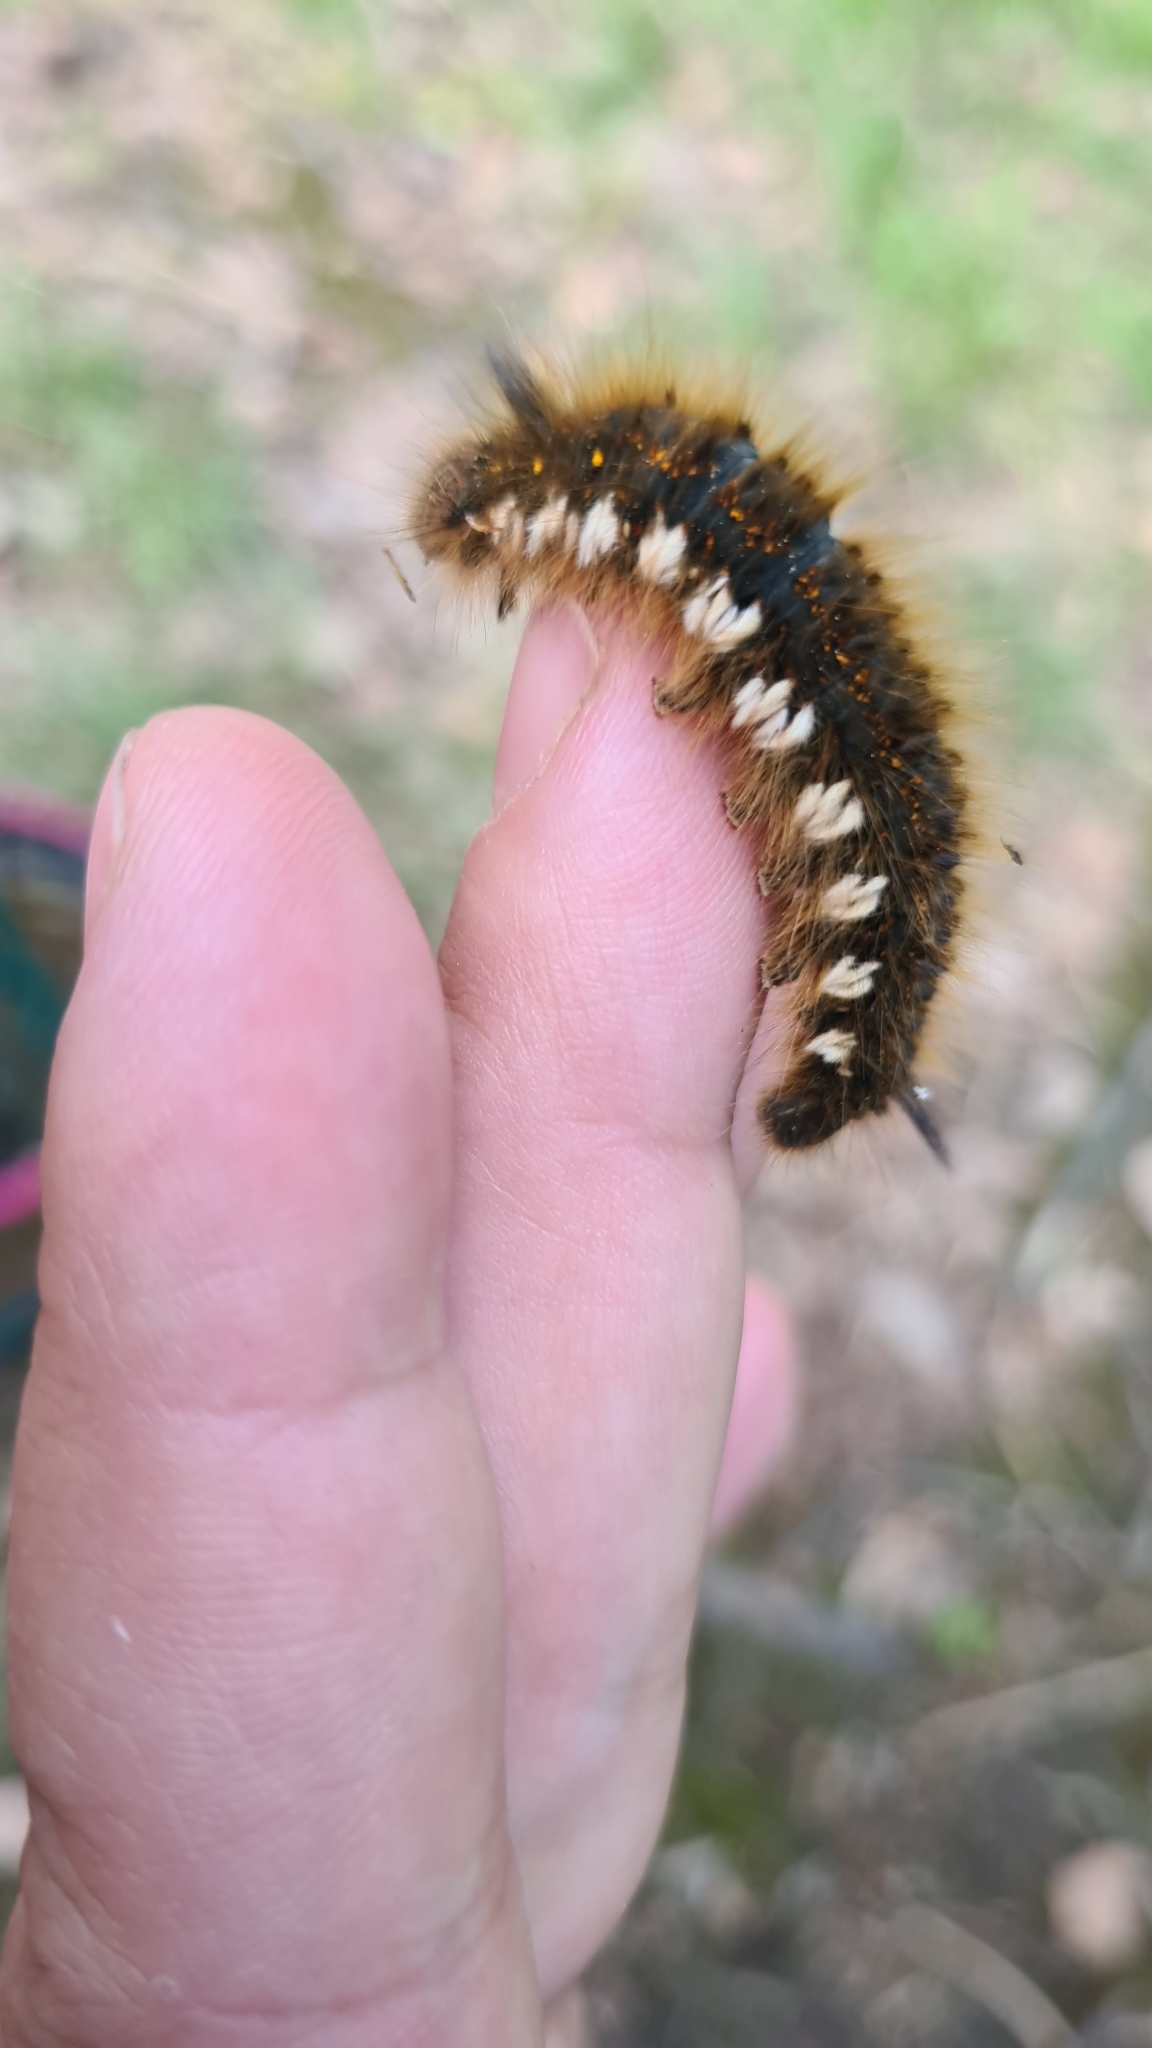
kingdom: Animalia
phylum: Arthropoda
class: Insecta
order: Lepidoptera
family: Lasiocampidae
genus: Euthrix
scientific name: Euthrix potatoria
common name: Drinker
